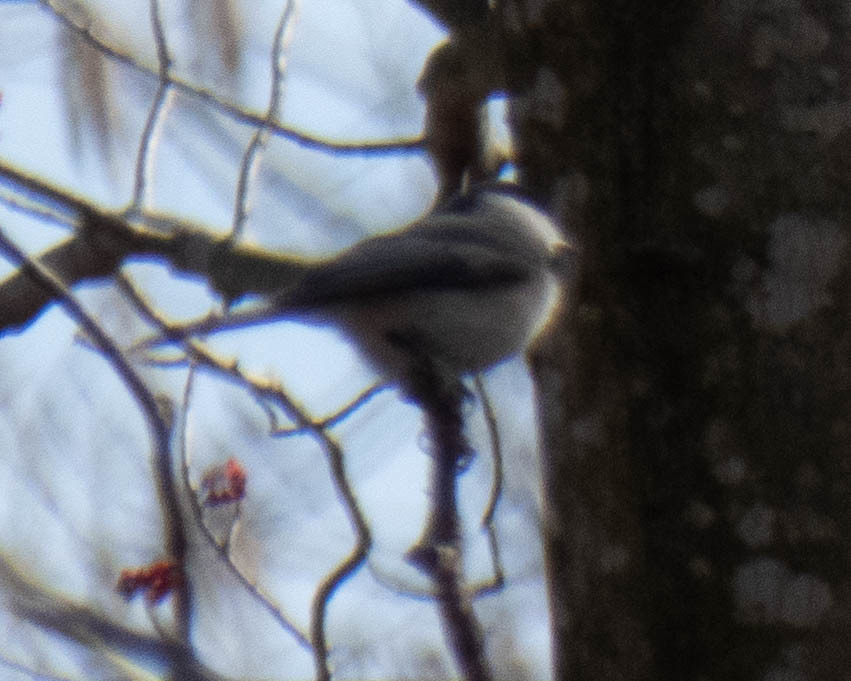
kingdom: Animalia
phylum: Chordata
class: Aves
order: Passeriformes
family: Paridae
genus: Poecile
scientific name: Poecile carolinensis
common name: Carolina chickadee
